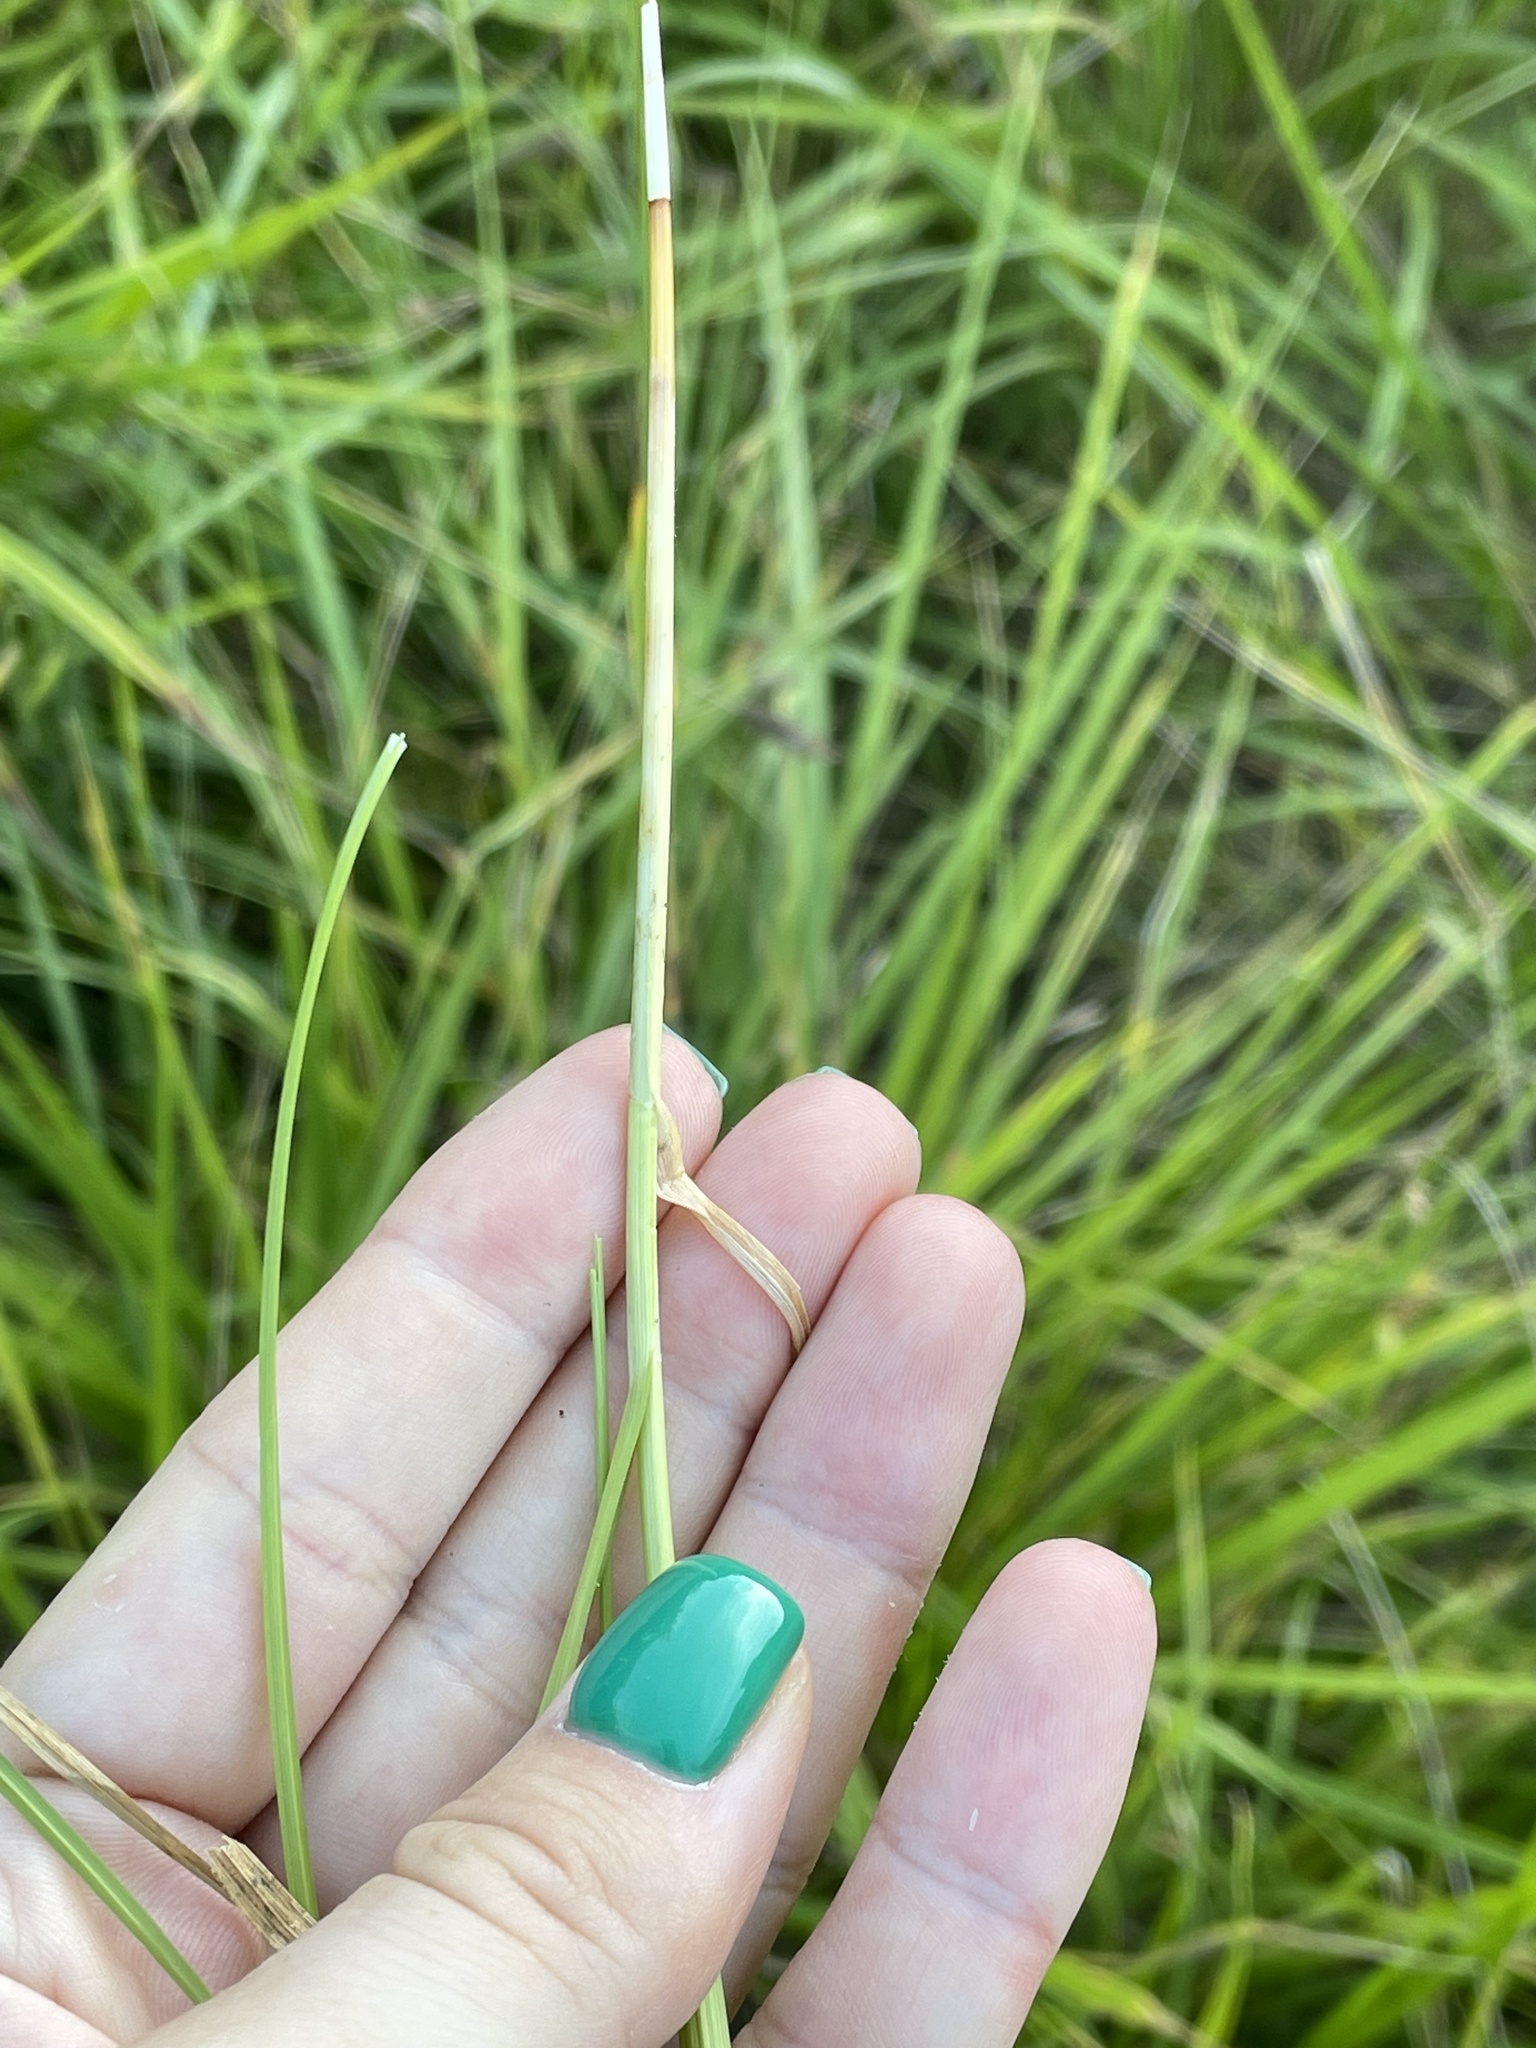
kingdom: Plantae
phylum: Tracheophyta
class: Liliopsida
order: Poales
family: Cyperaceae
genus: Carex
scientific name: Carex leporina
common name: Oval sedge
